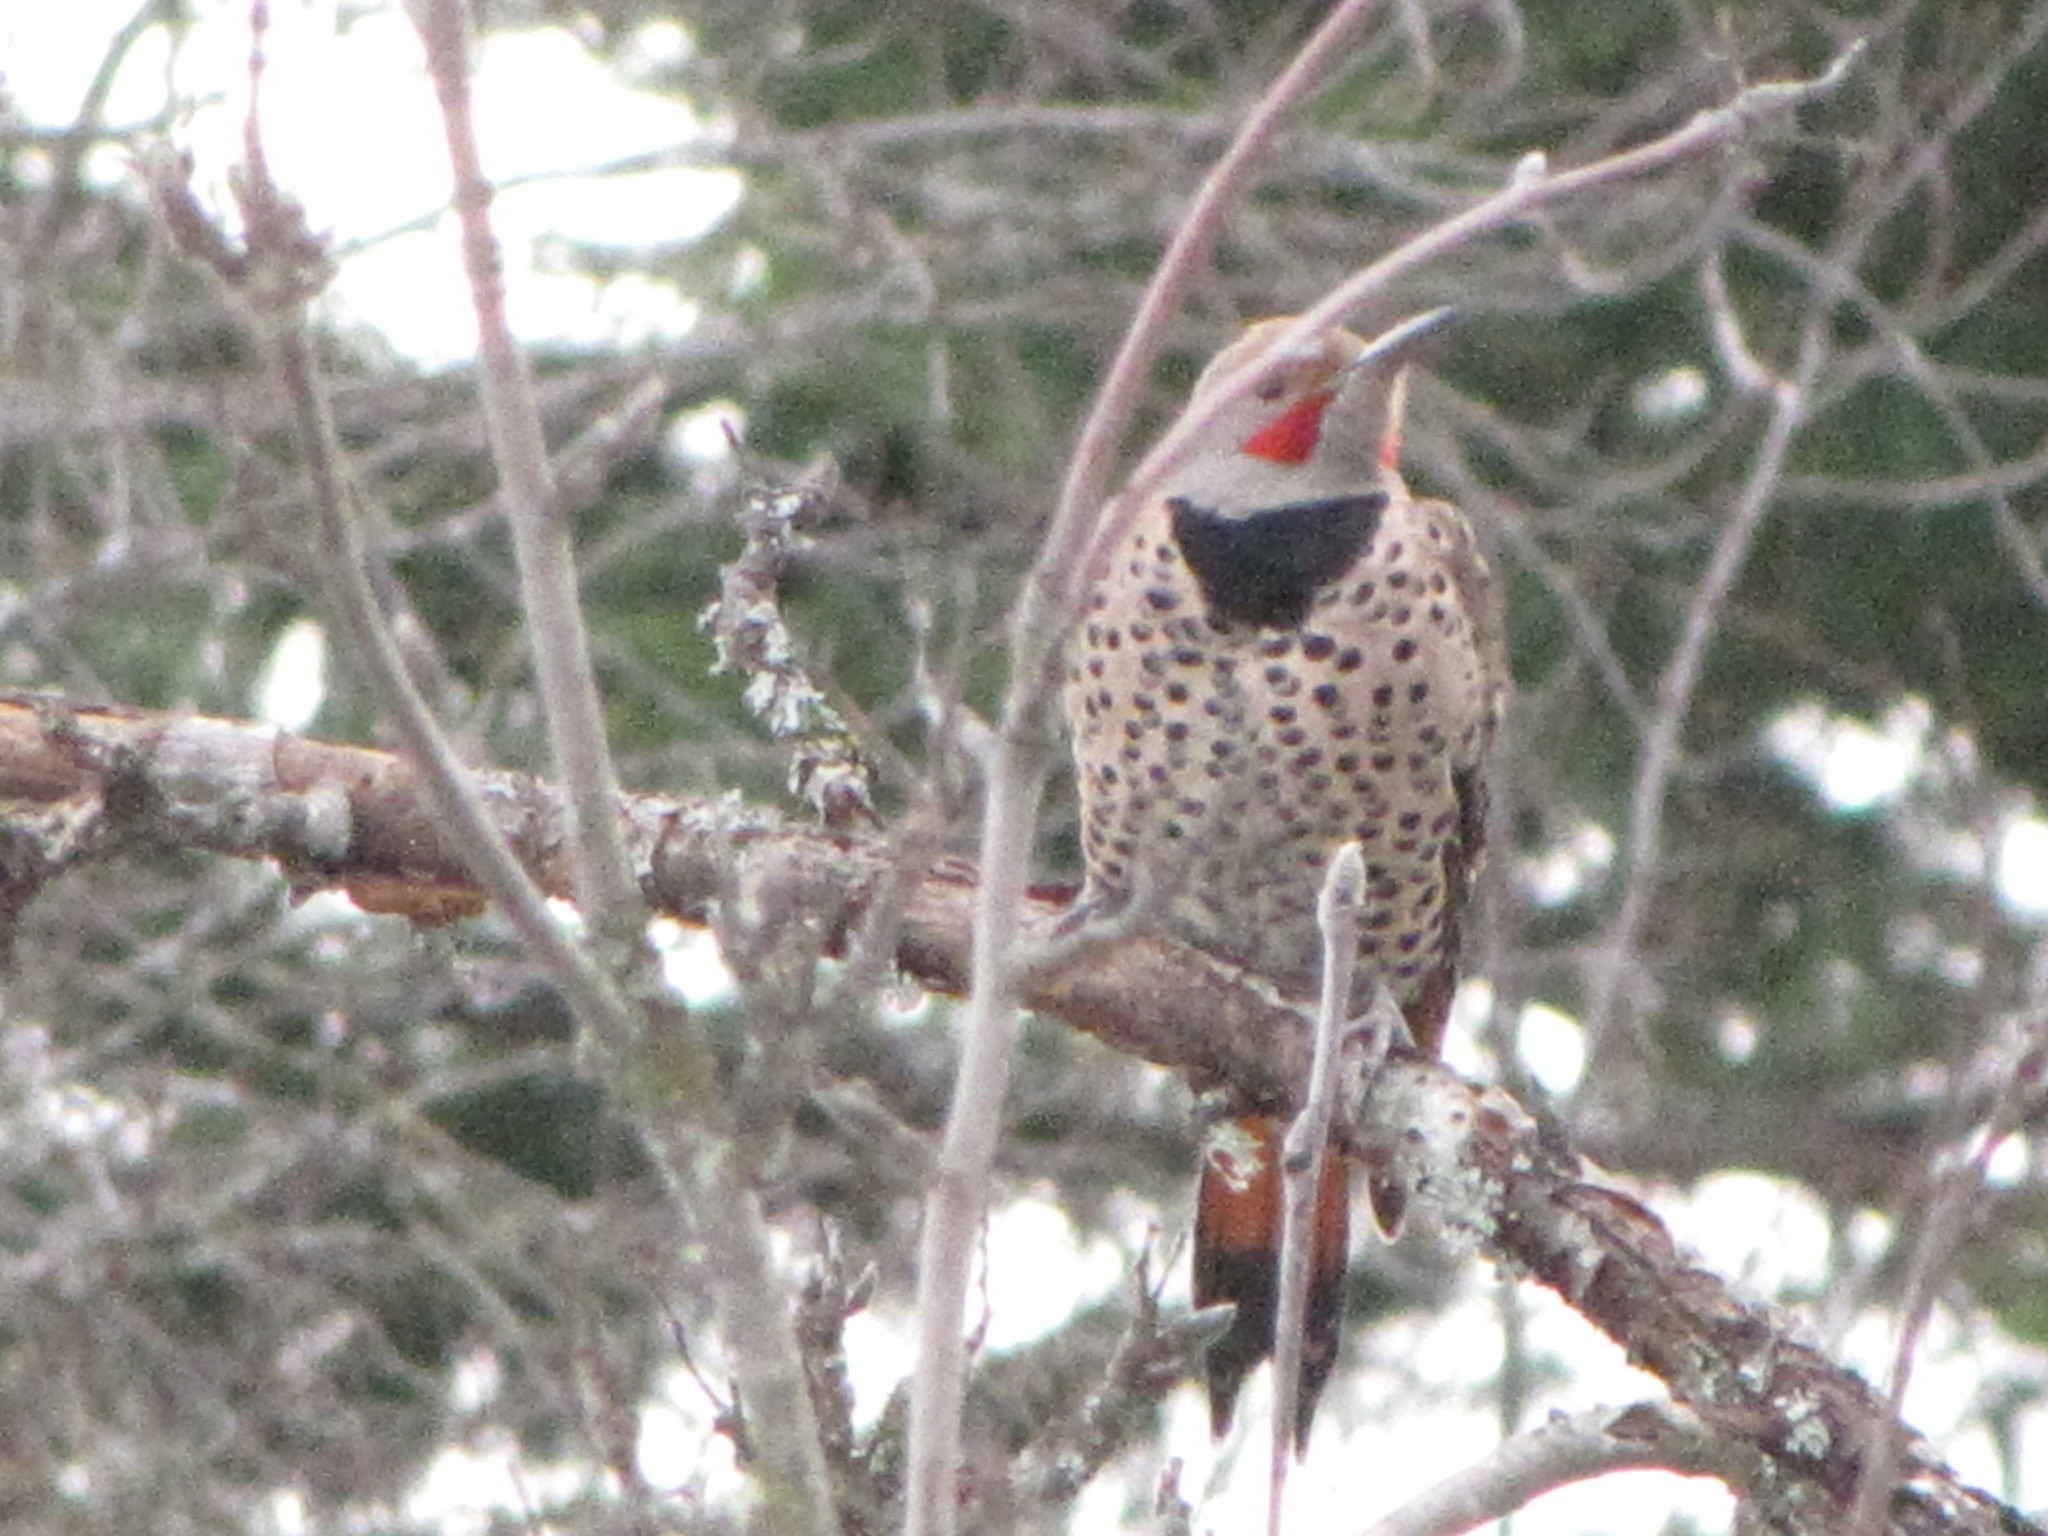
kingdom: Animalia
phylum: Chordata
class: Aves
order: Piciformes
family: Picidae
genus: Colaptes
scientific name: Colaptes auratus
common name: Northern flicker
